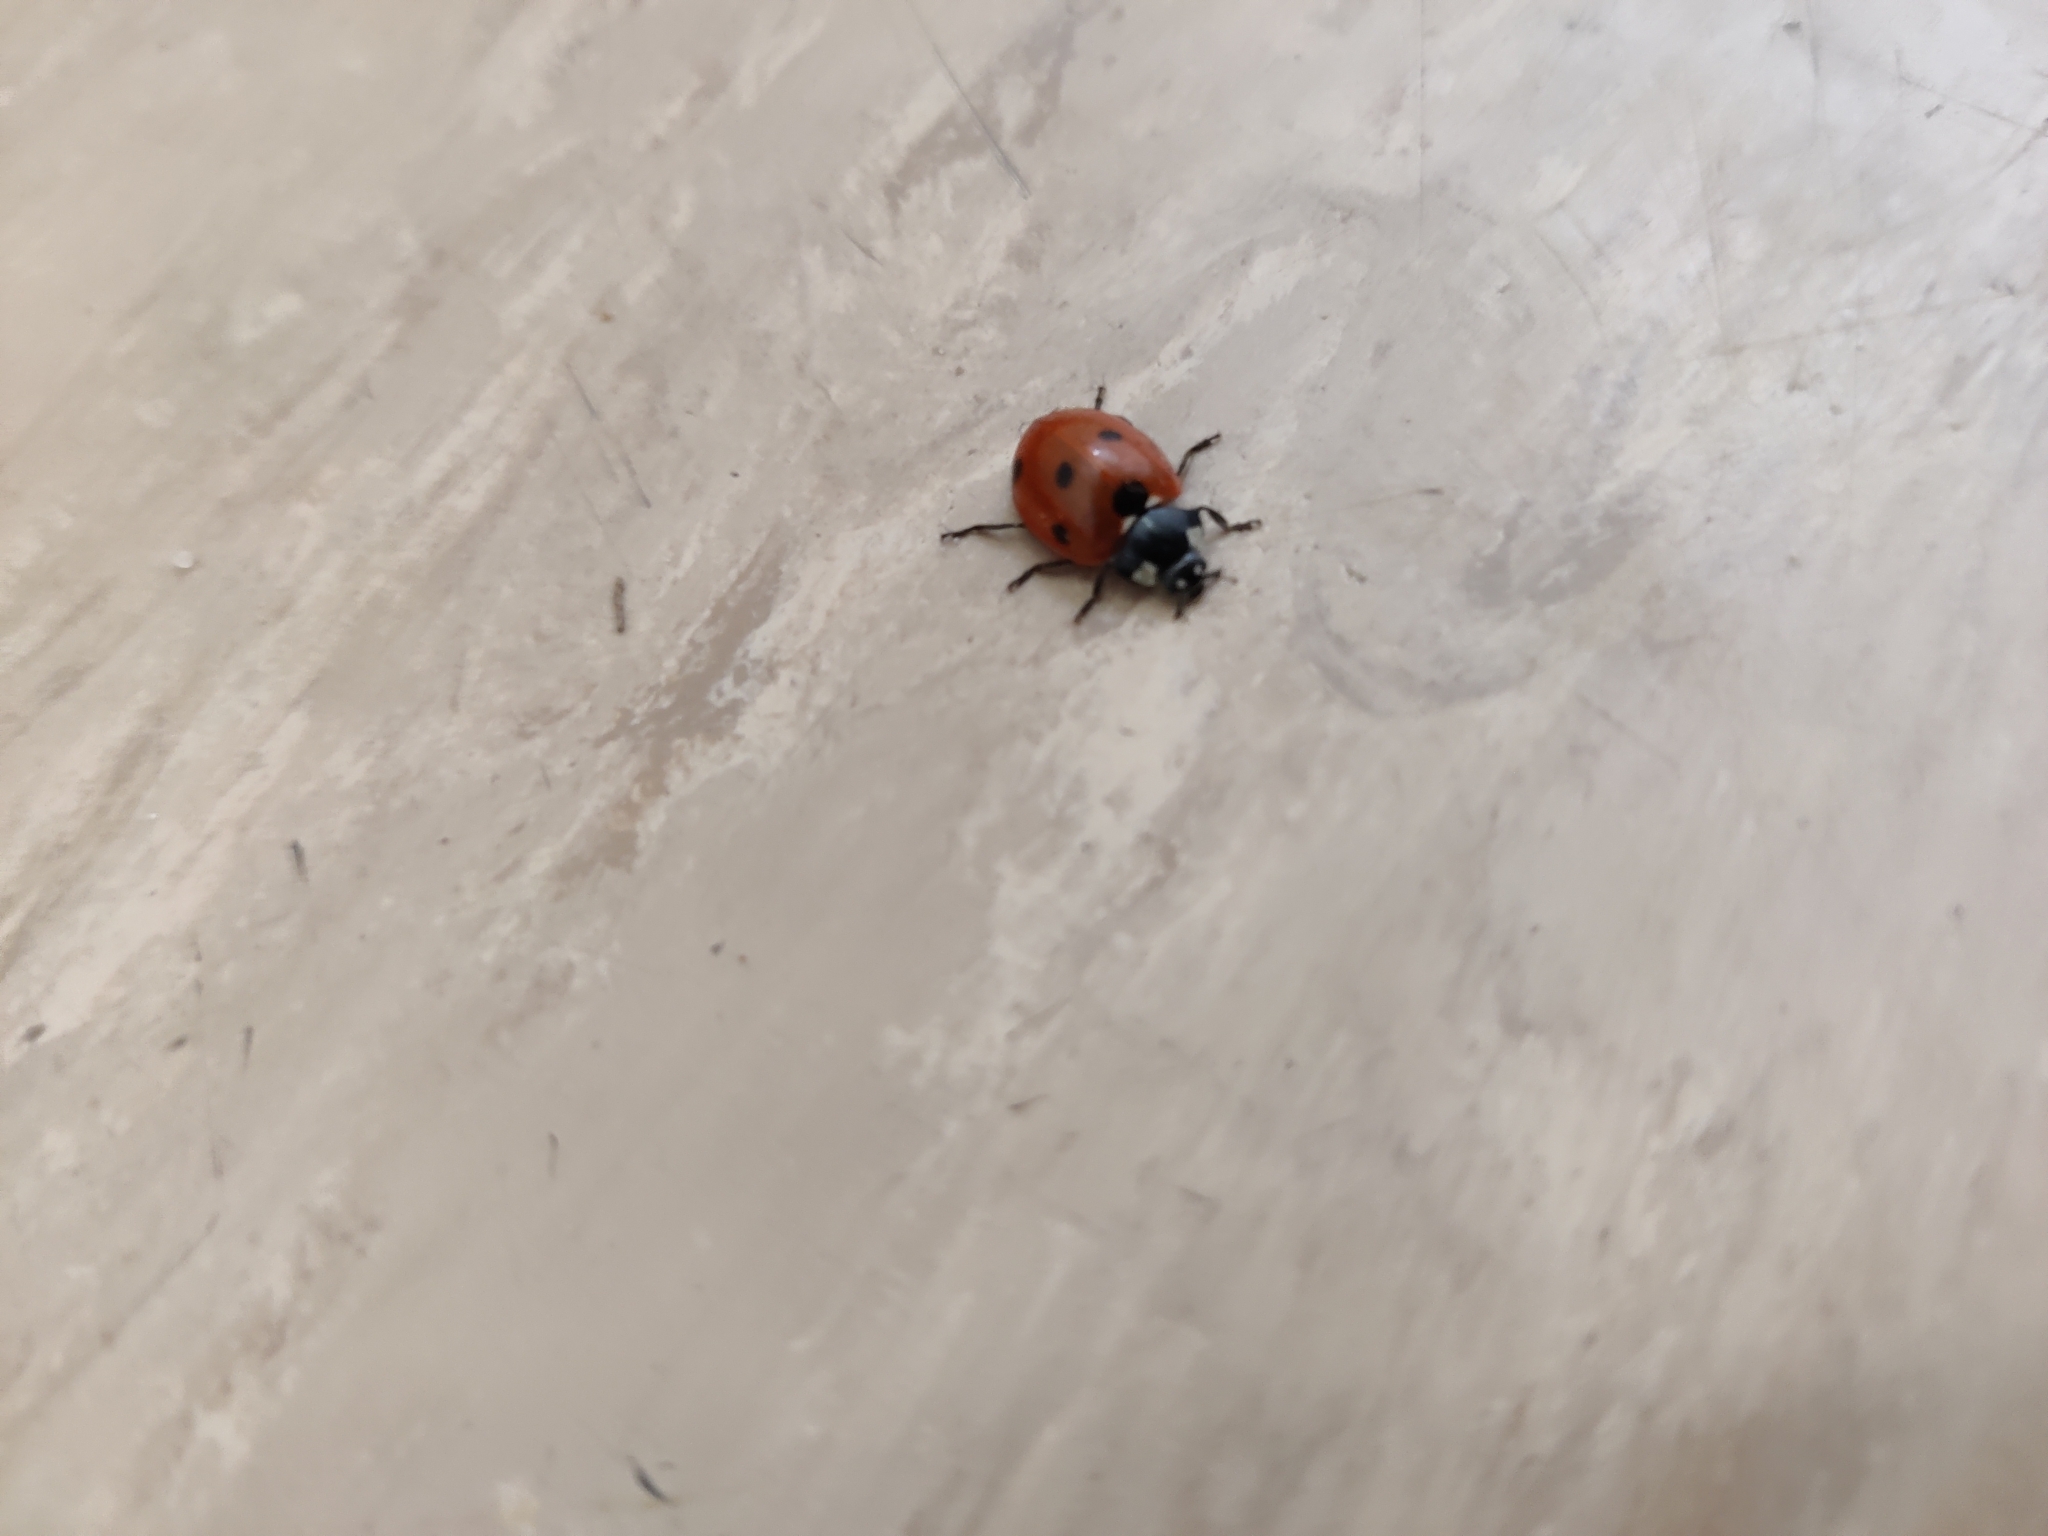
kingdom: Animalia
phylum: Arthropoda
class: Insecta
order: Coleoptera
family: Coccinellidae
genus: Coccinella
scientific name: Coccinella septempunctata
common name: Sevenspotted lady beetle
